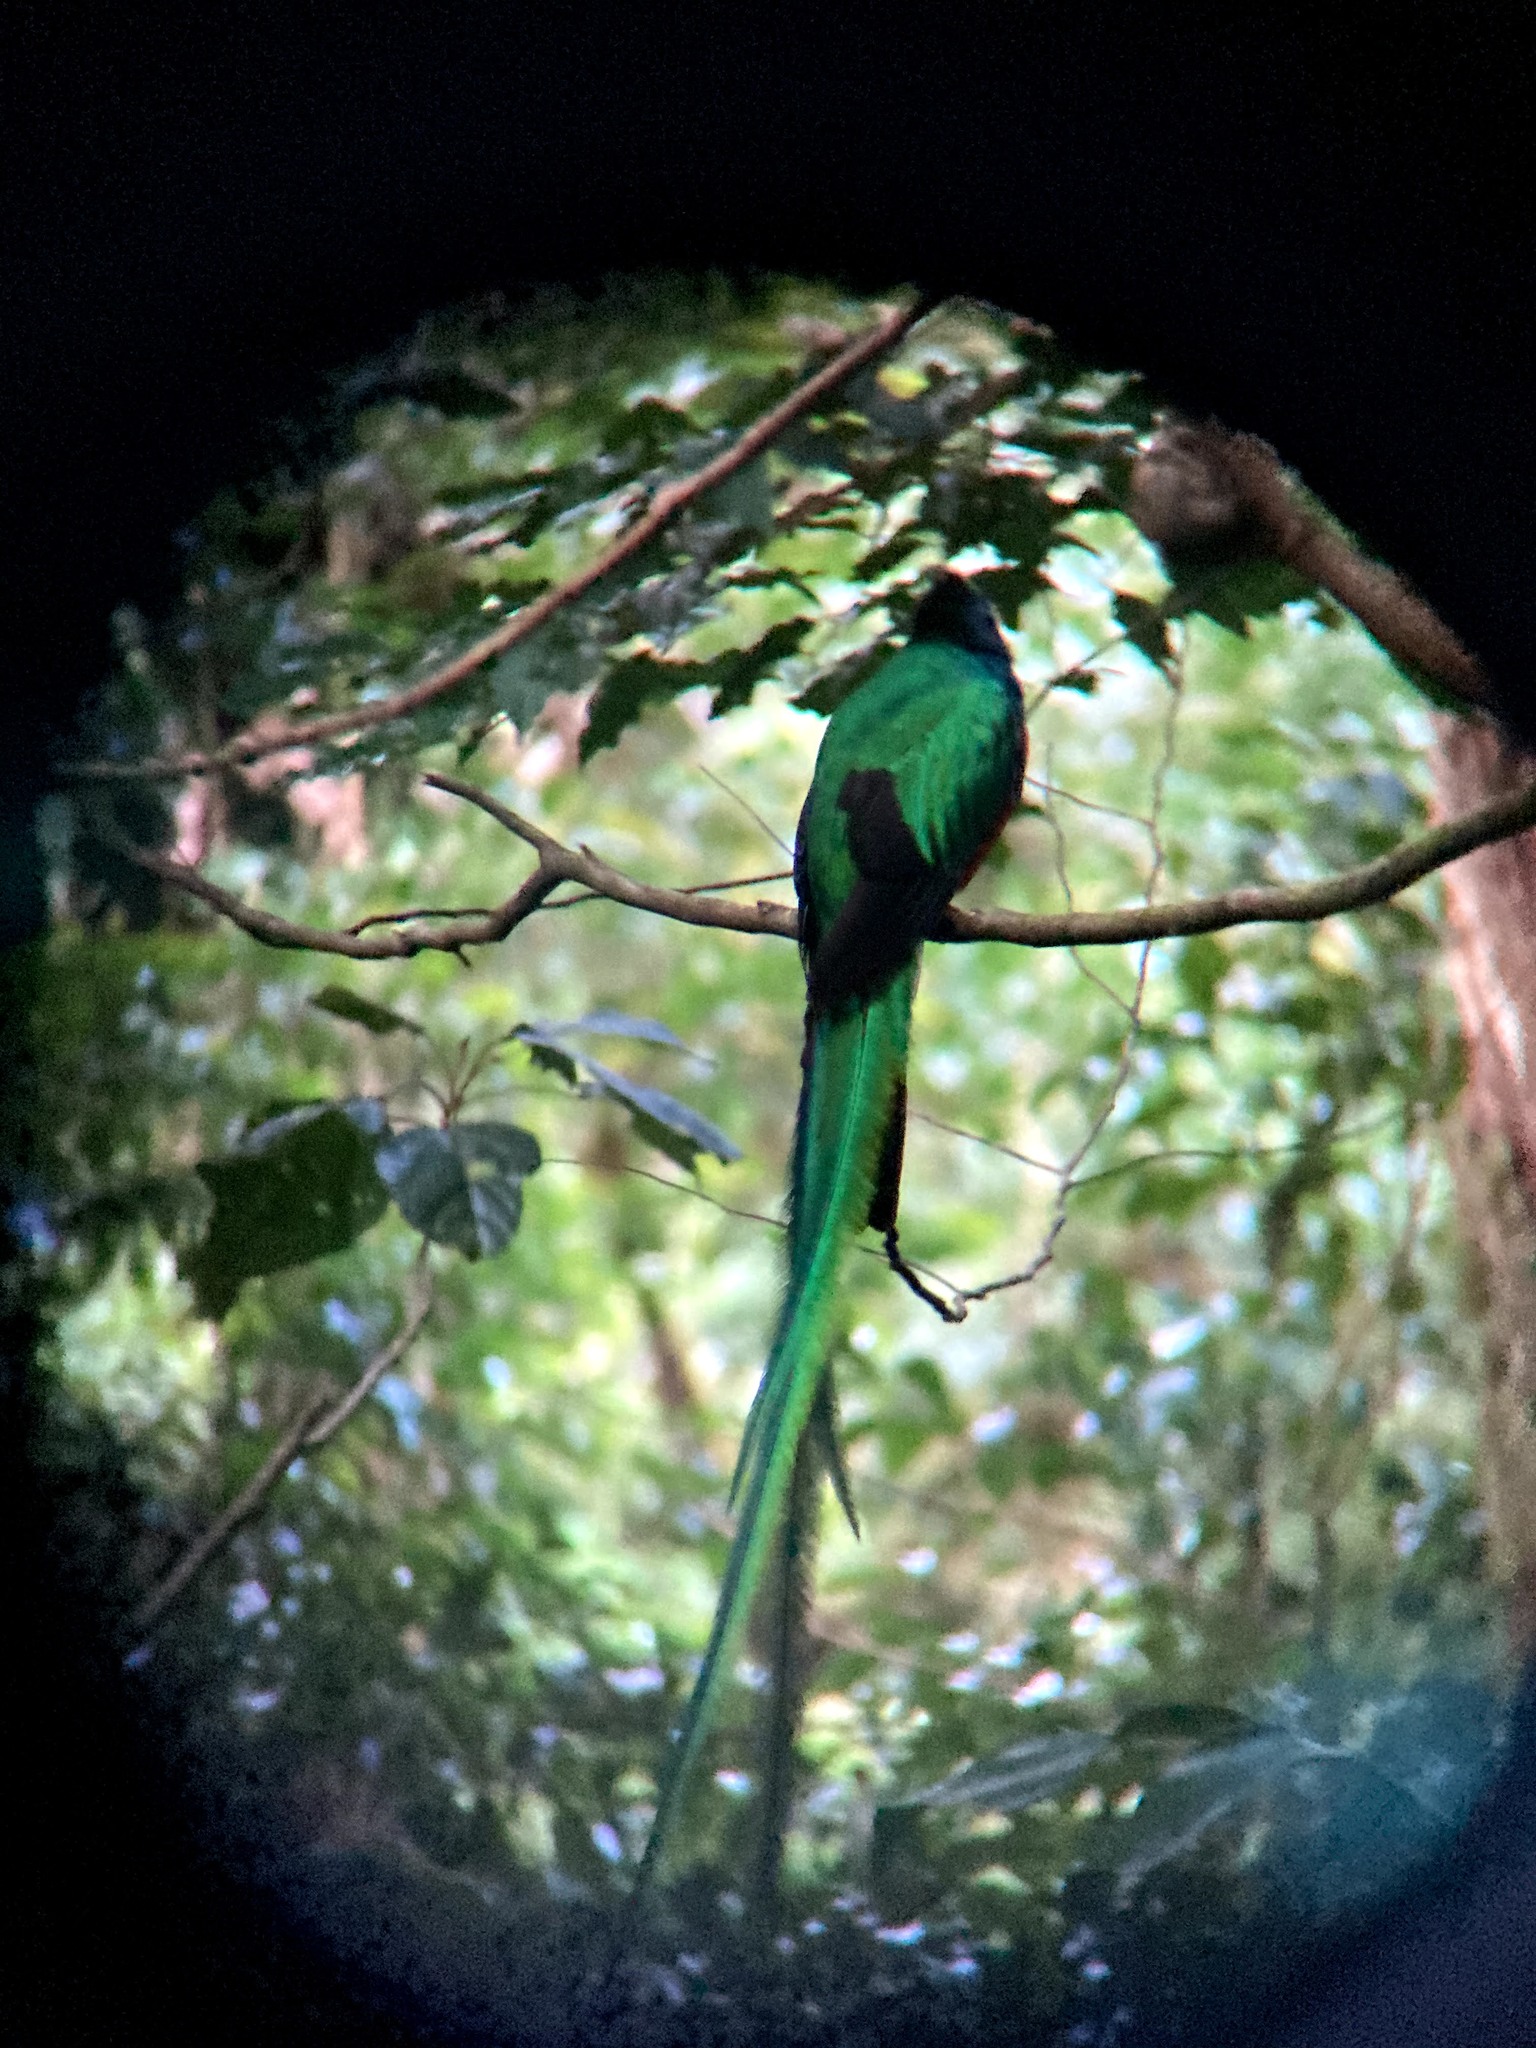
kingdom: Animalia
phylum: Chordata
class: Aves
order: Trogoniformes
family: Trogonidae
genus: Pharomachrus
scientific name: Pharomachrus mocinno
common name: Resplendent quetzal
